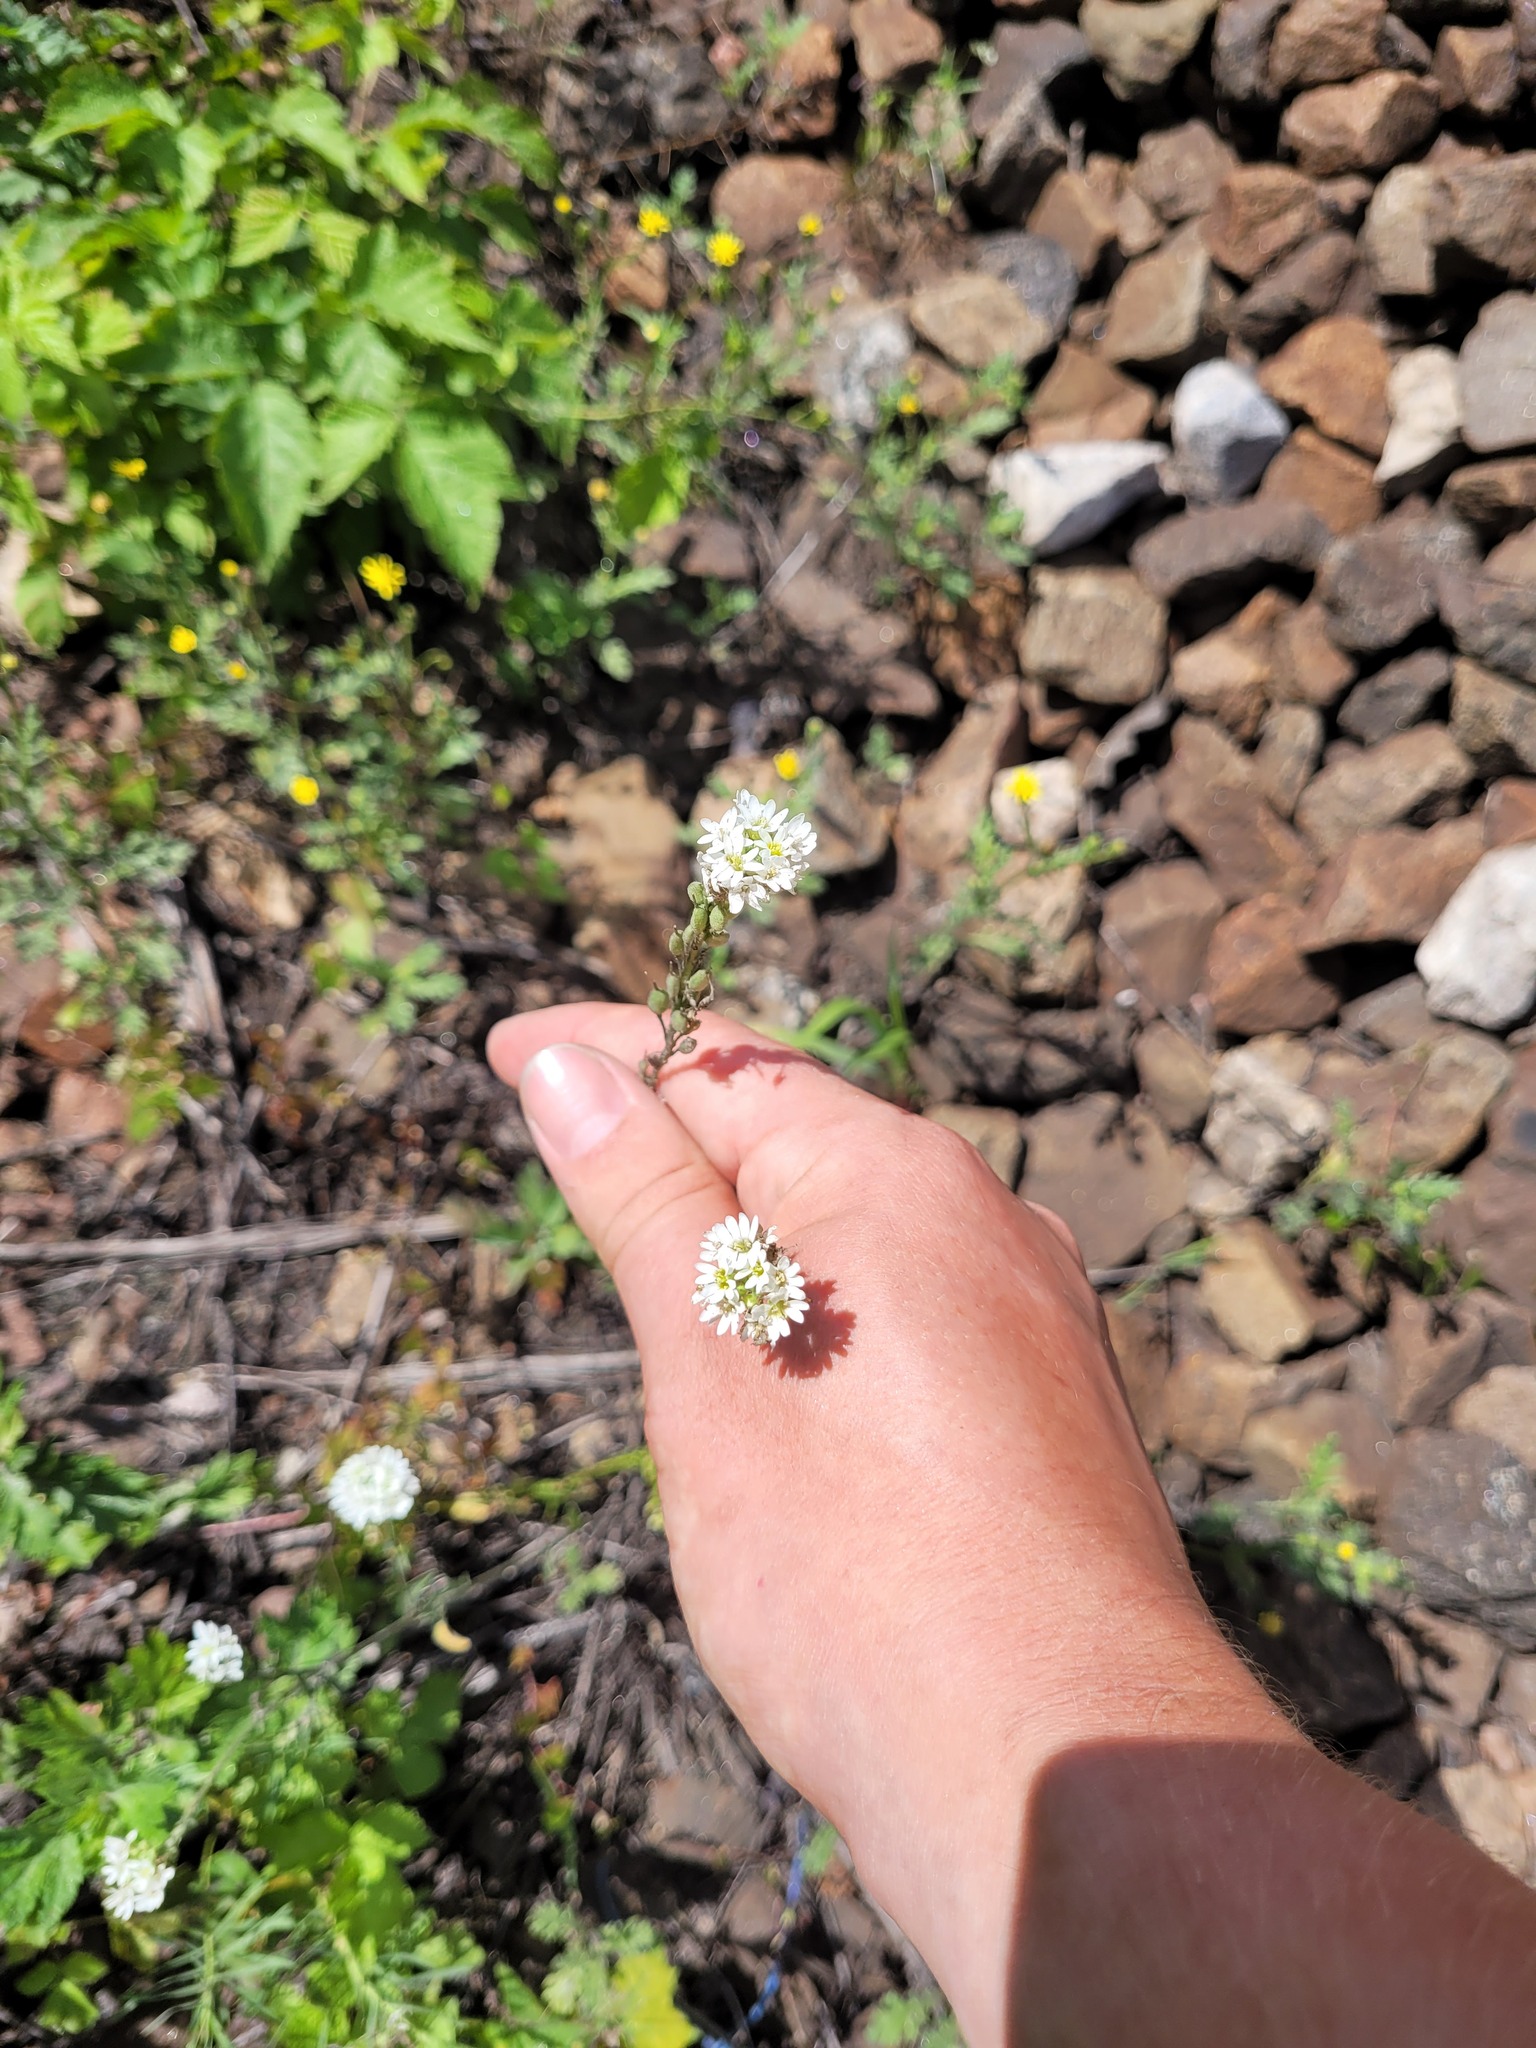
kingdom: Plantae
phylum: Tracheophyta
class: Magnoliopsida
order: Brassicales
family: Brassicaceae
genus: Berteroa
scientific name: Berteroa incana
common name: Hoary alison
